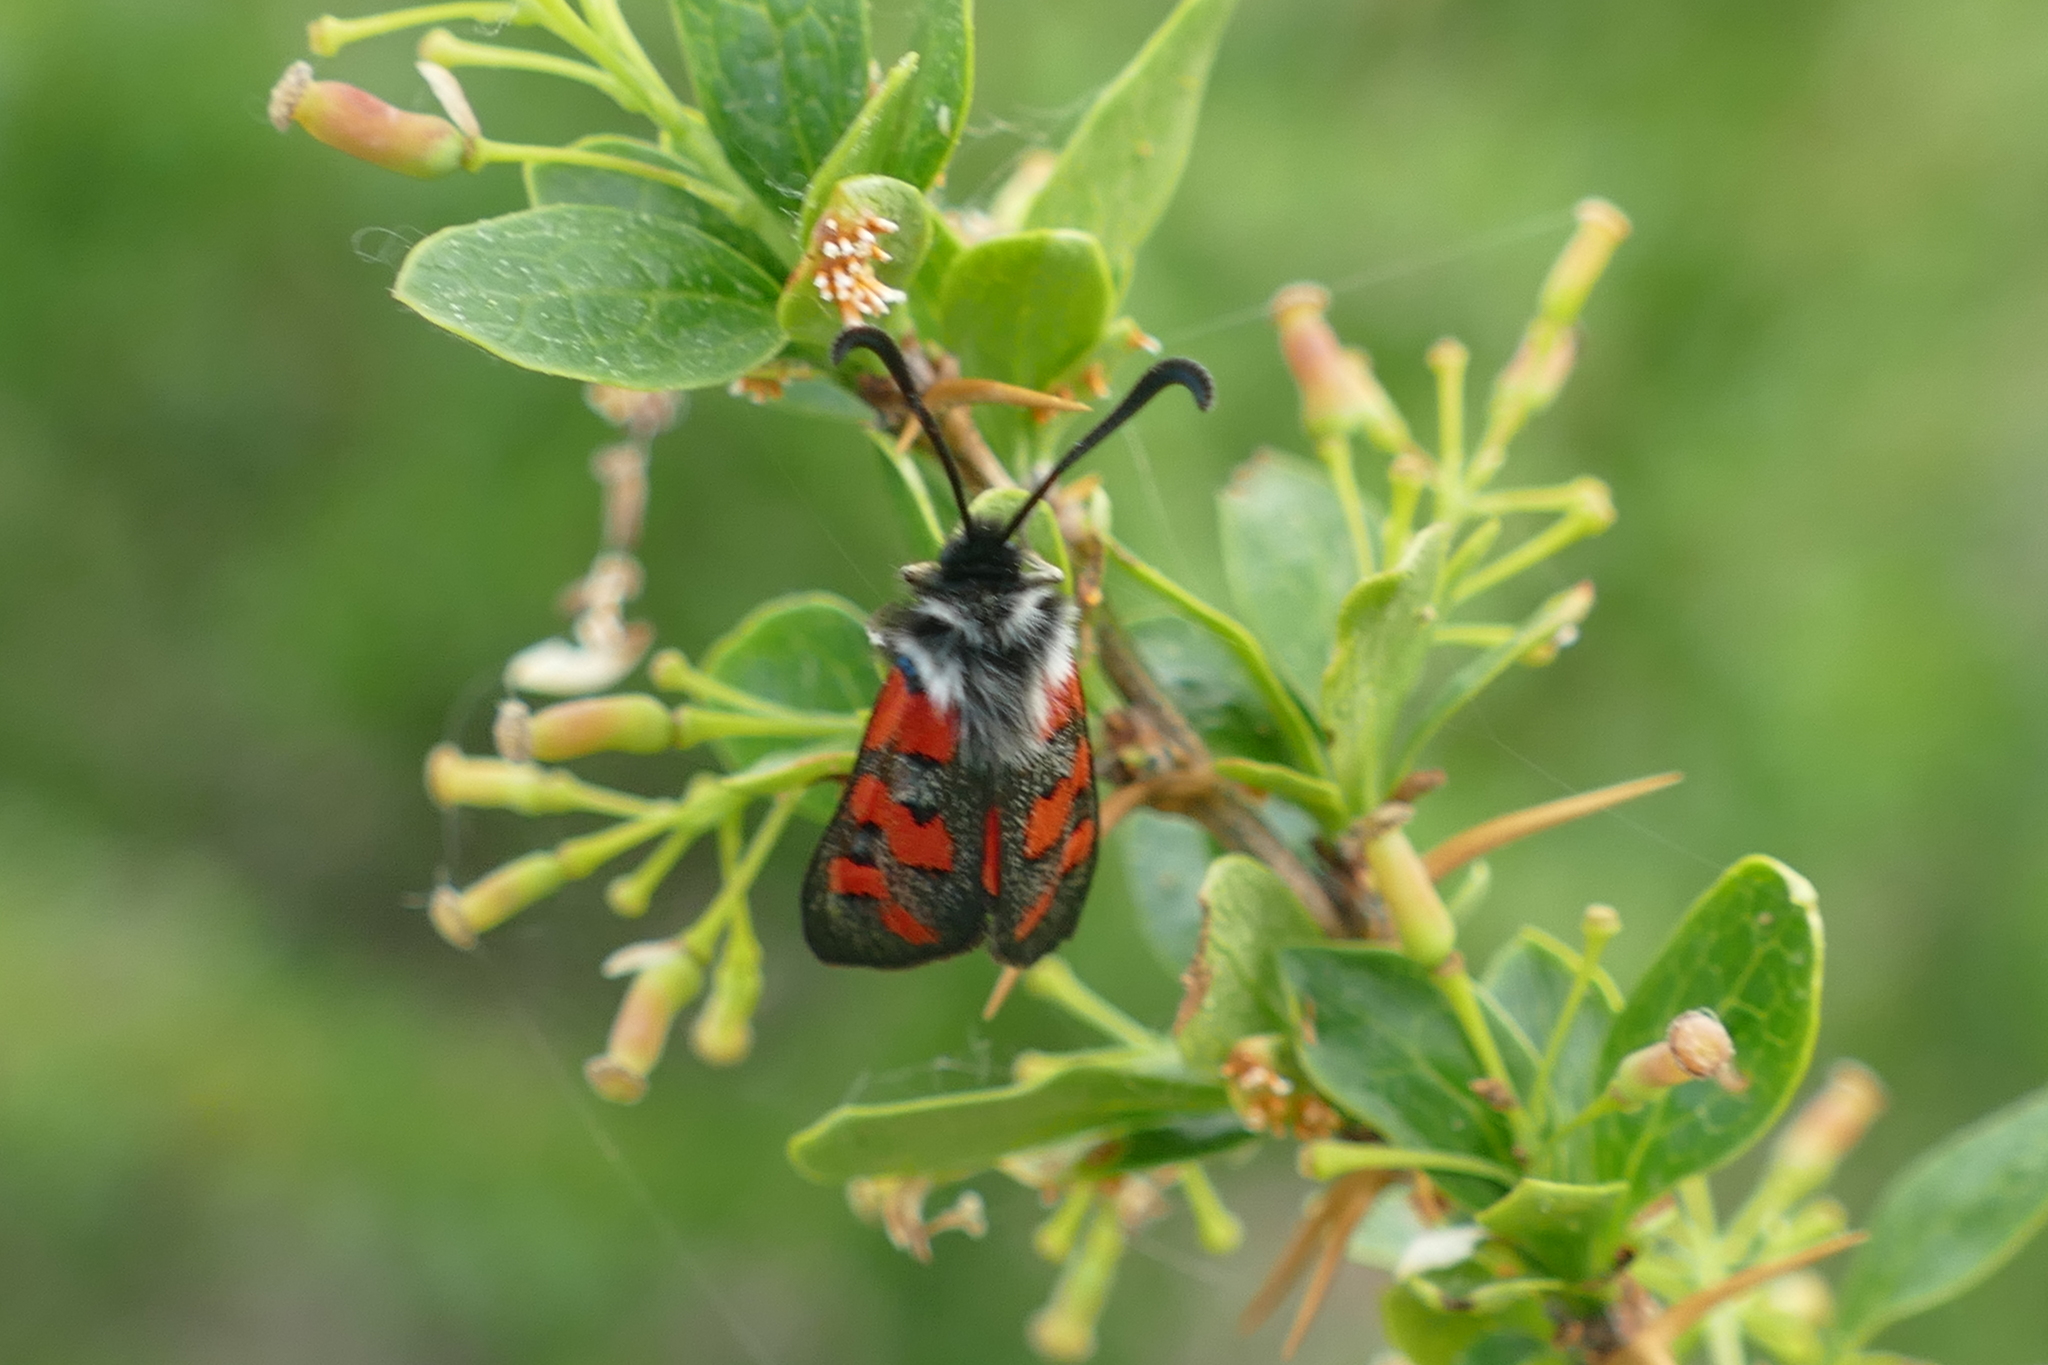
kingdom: Animalia
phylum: Arthropoda
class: Insecta
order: Lepidoptera
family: Zygaenidae
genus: Zygaena
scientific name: Zygaena rhadamanthus
